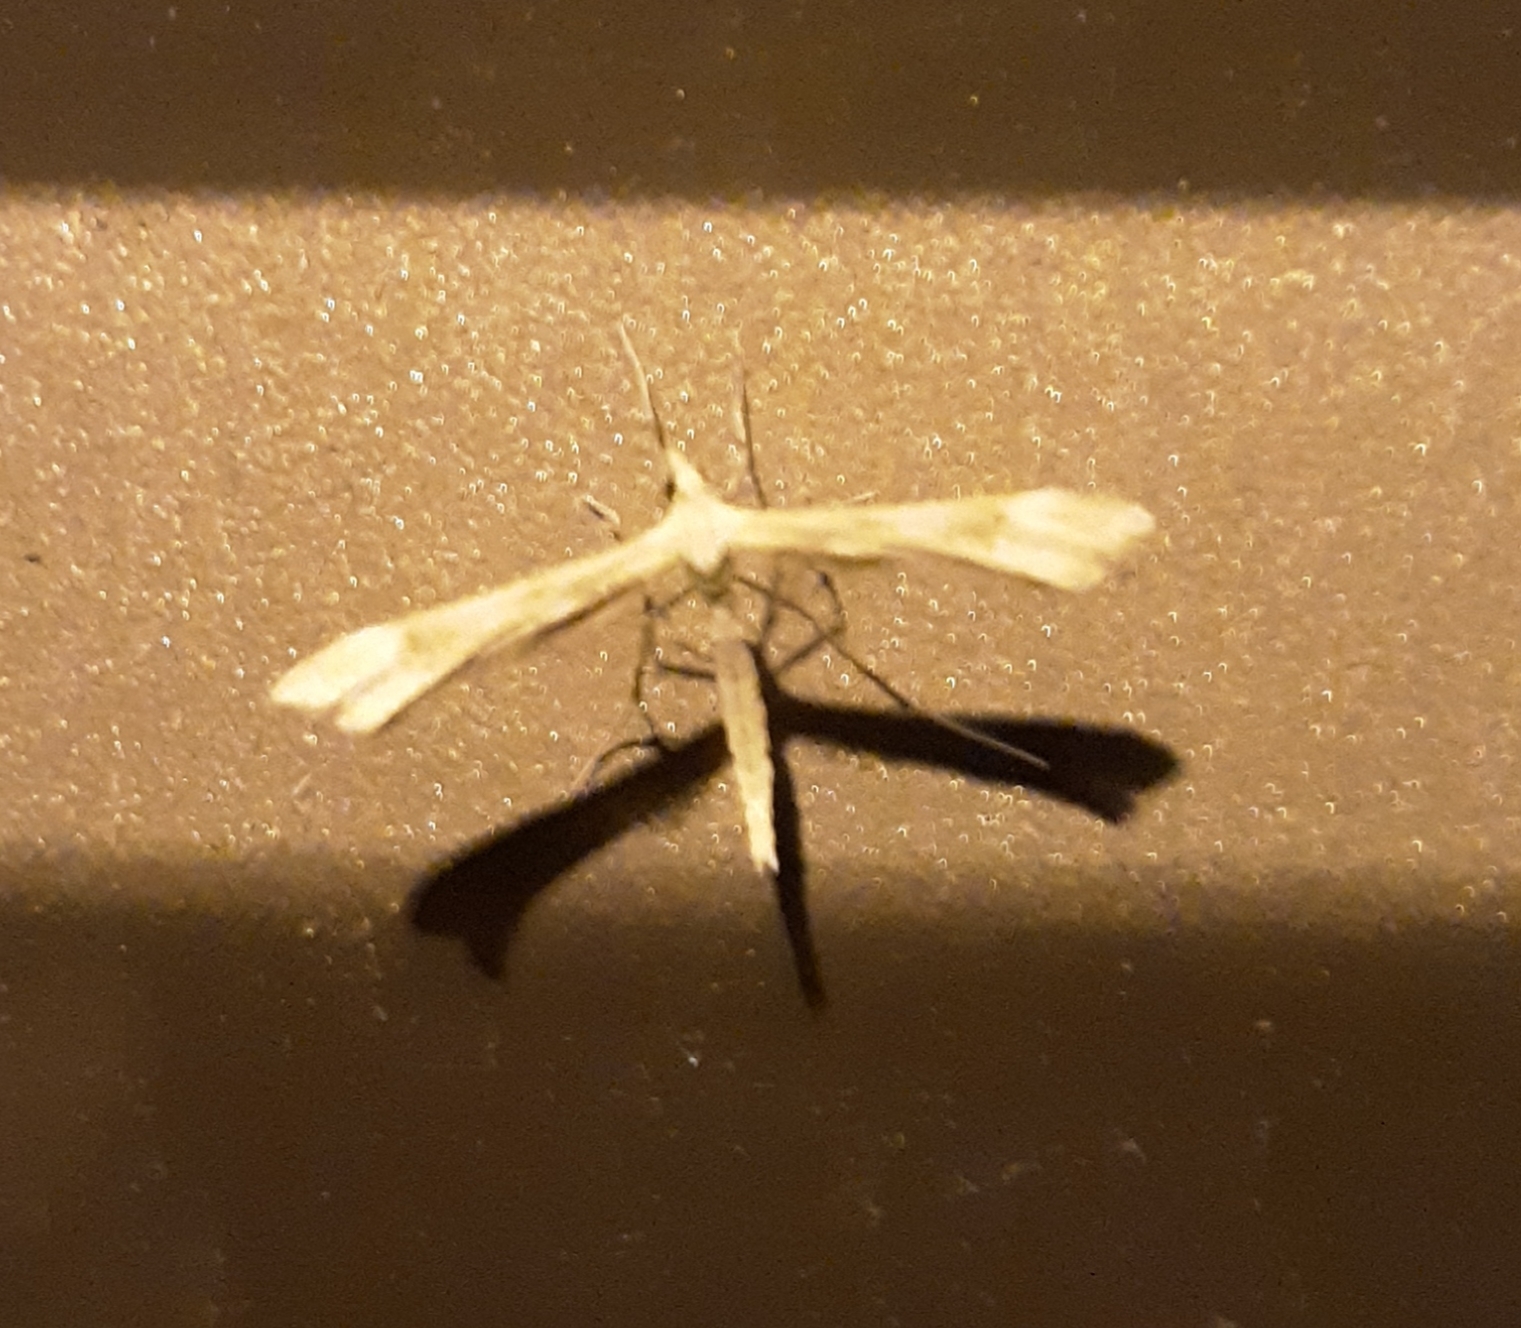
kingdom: Animalia
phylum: Arthropoda
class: Insecta
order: Lepidoptera
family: Pterophoridae
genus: Gillmeria
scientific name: Gillmeria pallidactyla
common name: Yarrow plume
